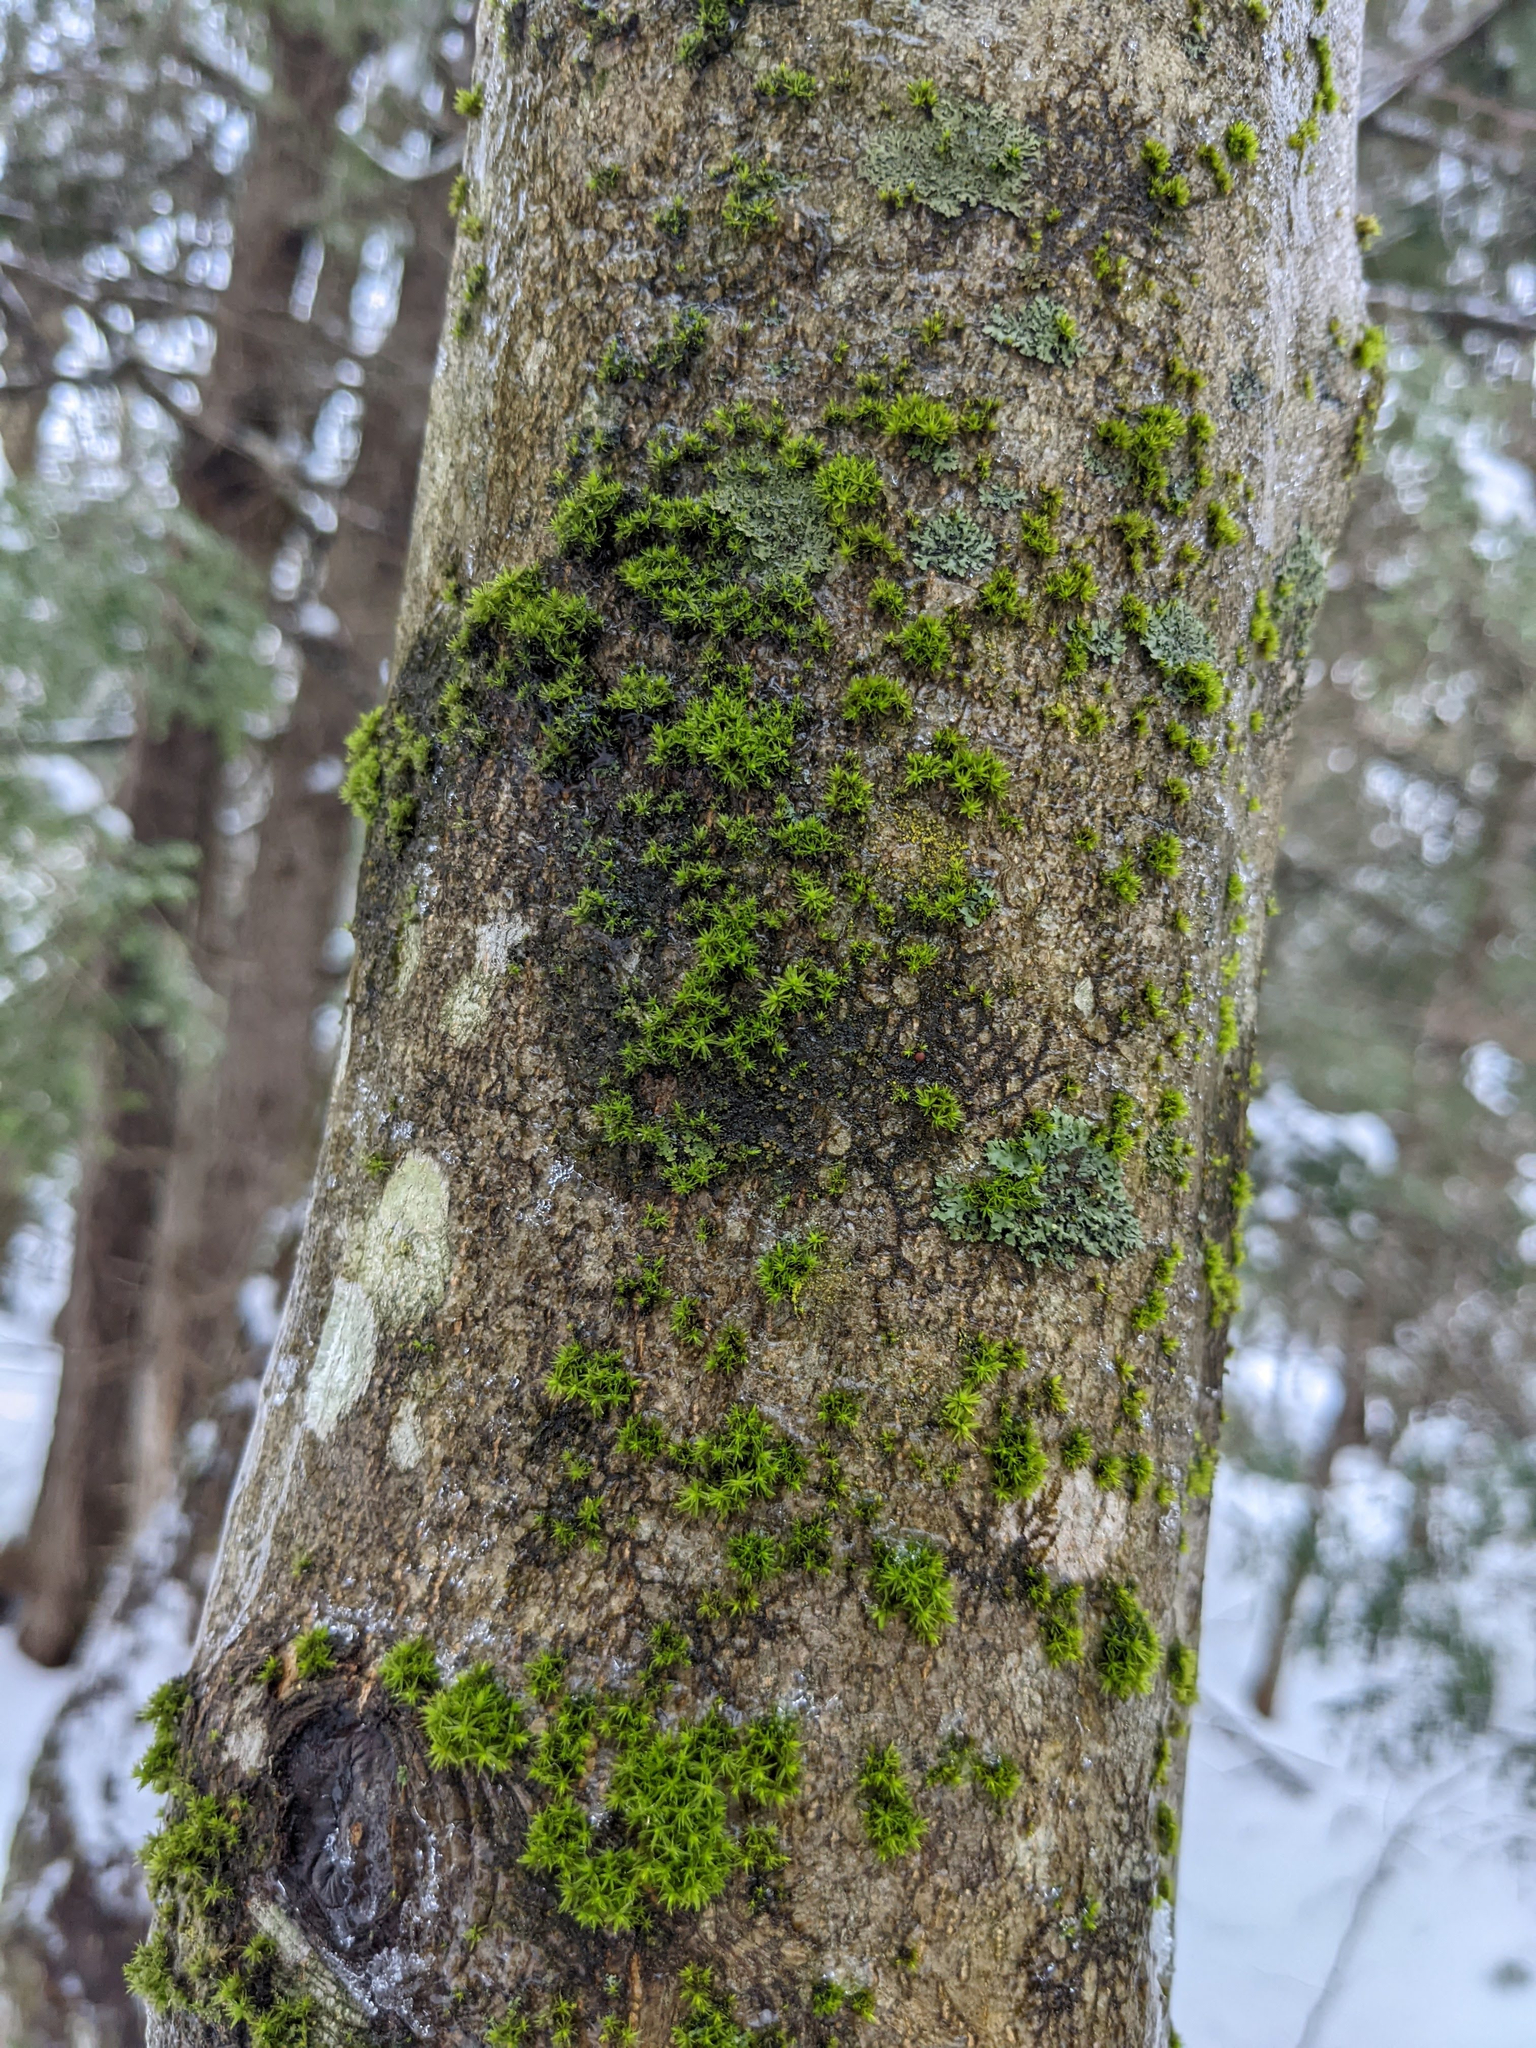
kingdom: Plantae
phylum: Bryophyta
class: Bryopsida
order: Orthotrichales
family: Orthotrichaceae
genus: Ulota
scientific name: Ulota crispa
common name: Crisped pincushion moss
